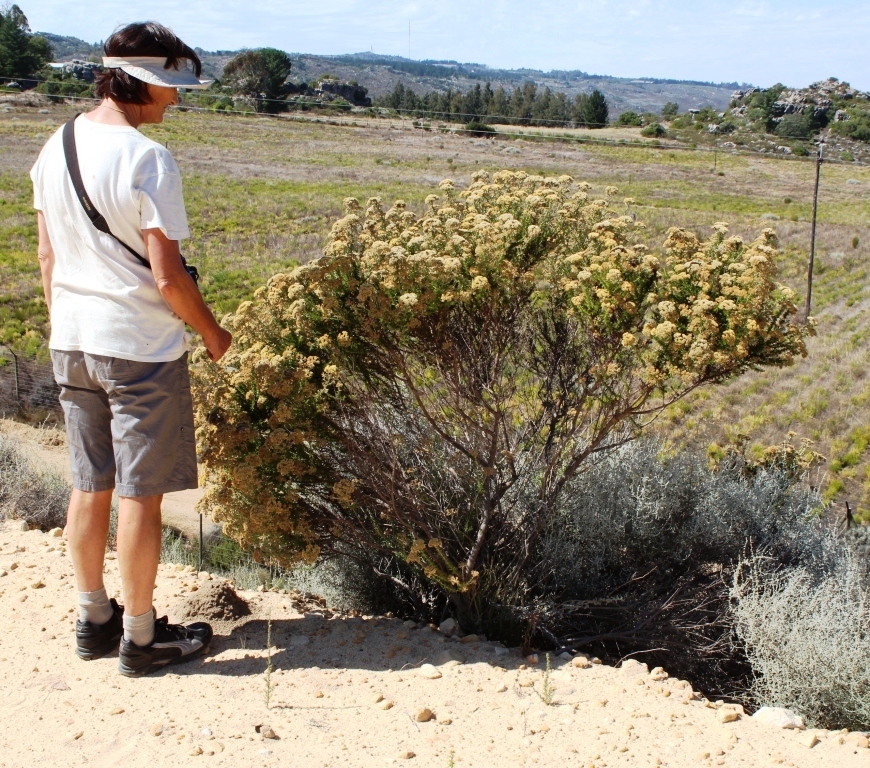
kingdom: Plantae
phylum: Tracheophyta
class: Magnoliopsida
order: Asterales
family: Asteraceae
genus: Metalasia
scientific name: Metalasia densa
